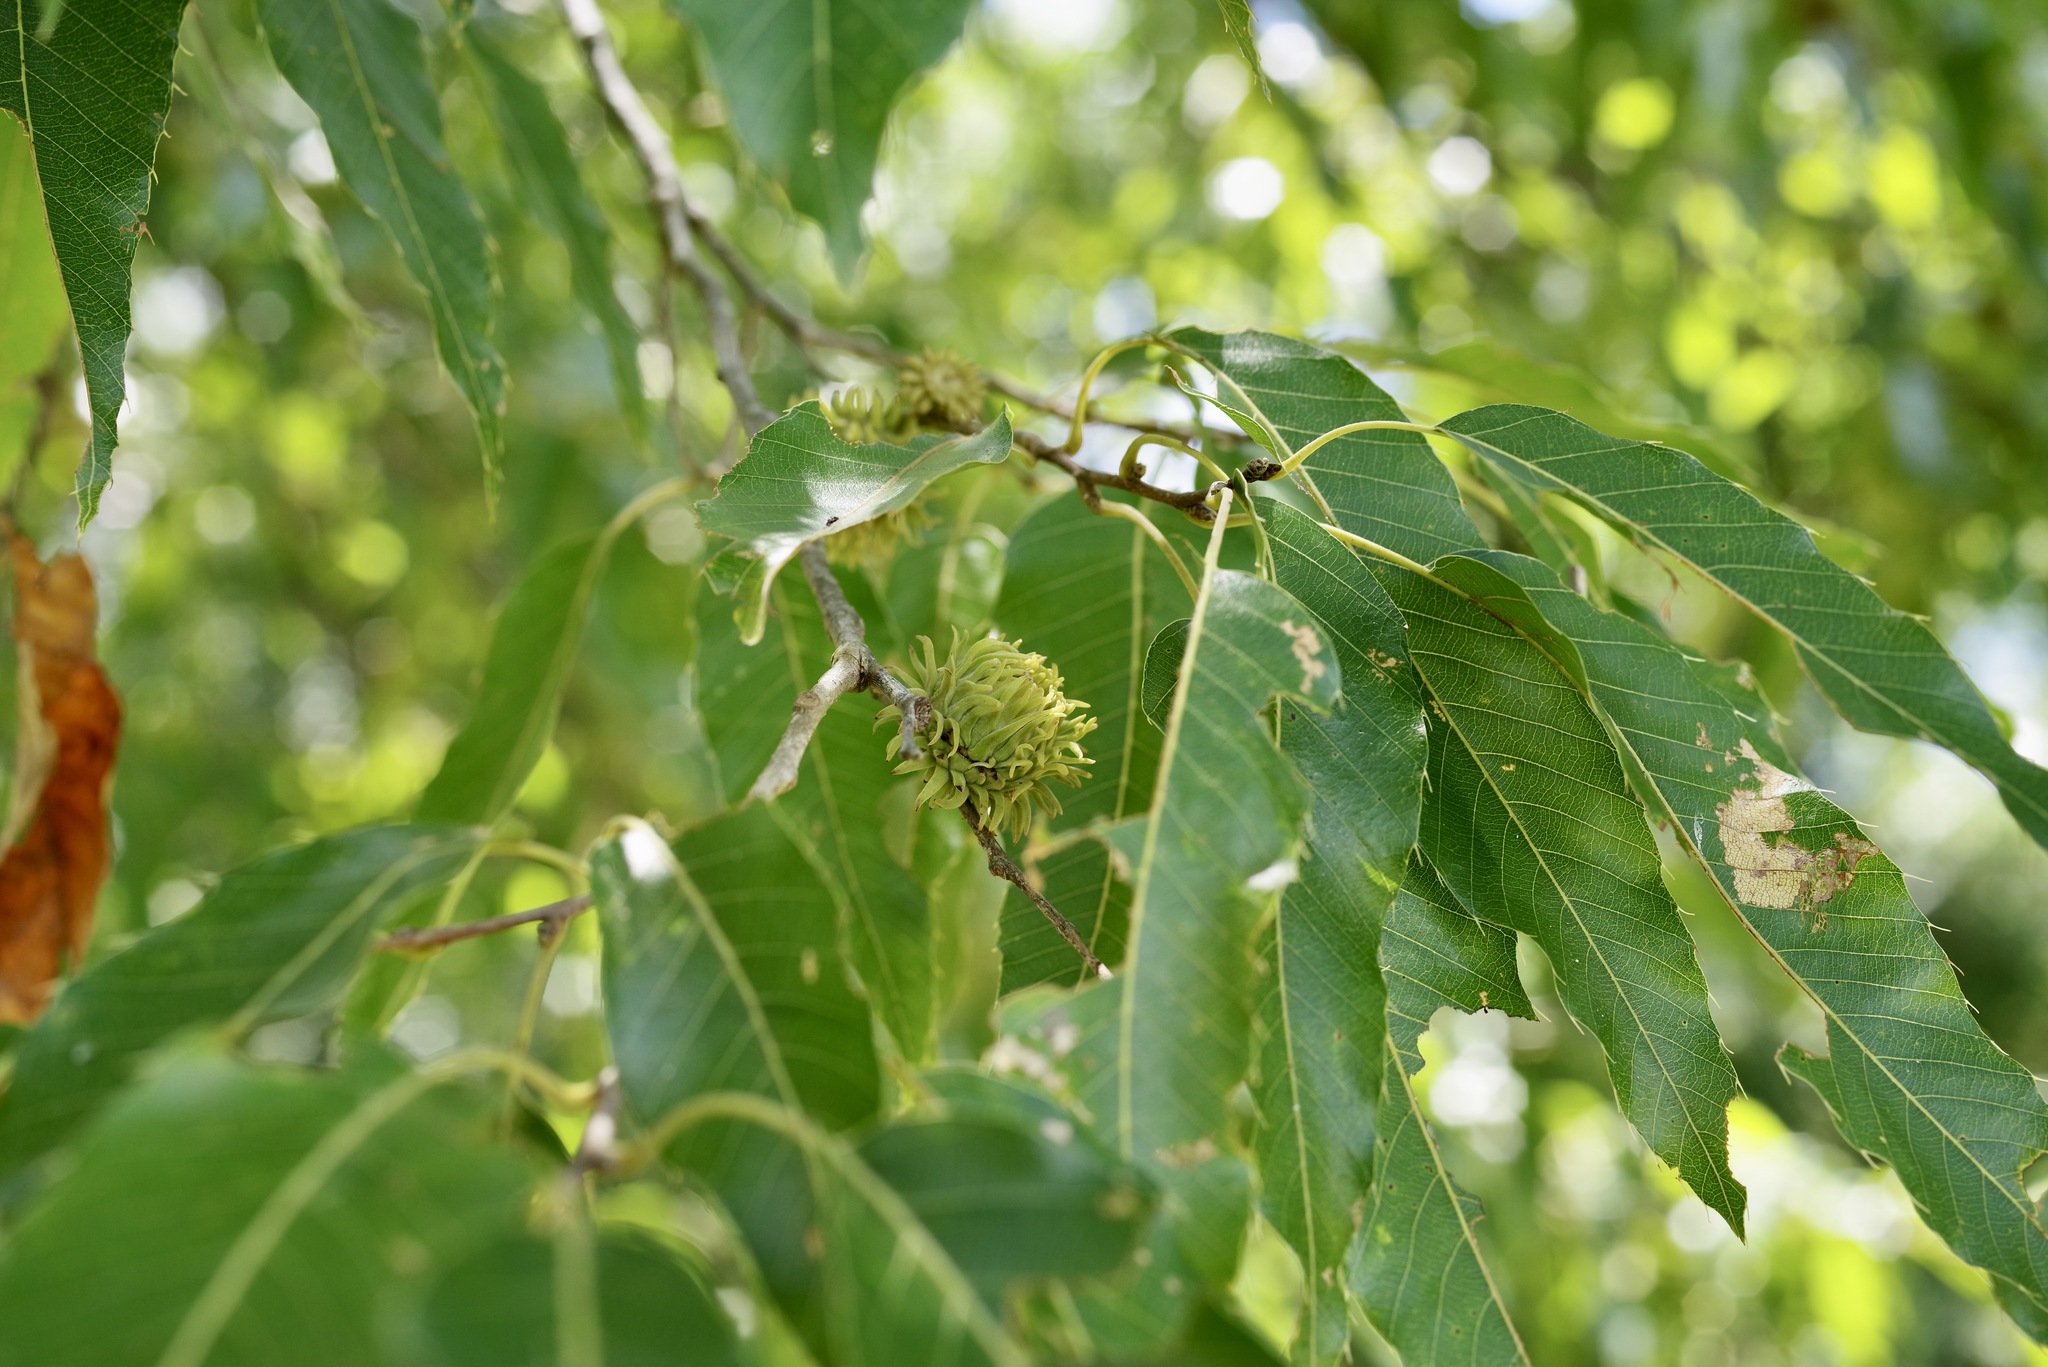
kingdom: Plantae
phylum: Tracheophyta
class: Magnoliopsida
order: Fagales
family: Fagaceae
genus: Quercus
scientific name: Quercus acutissima
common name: Sawtooth oak
